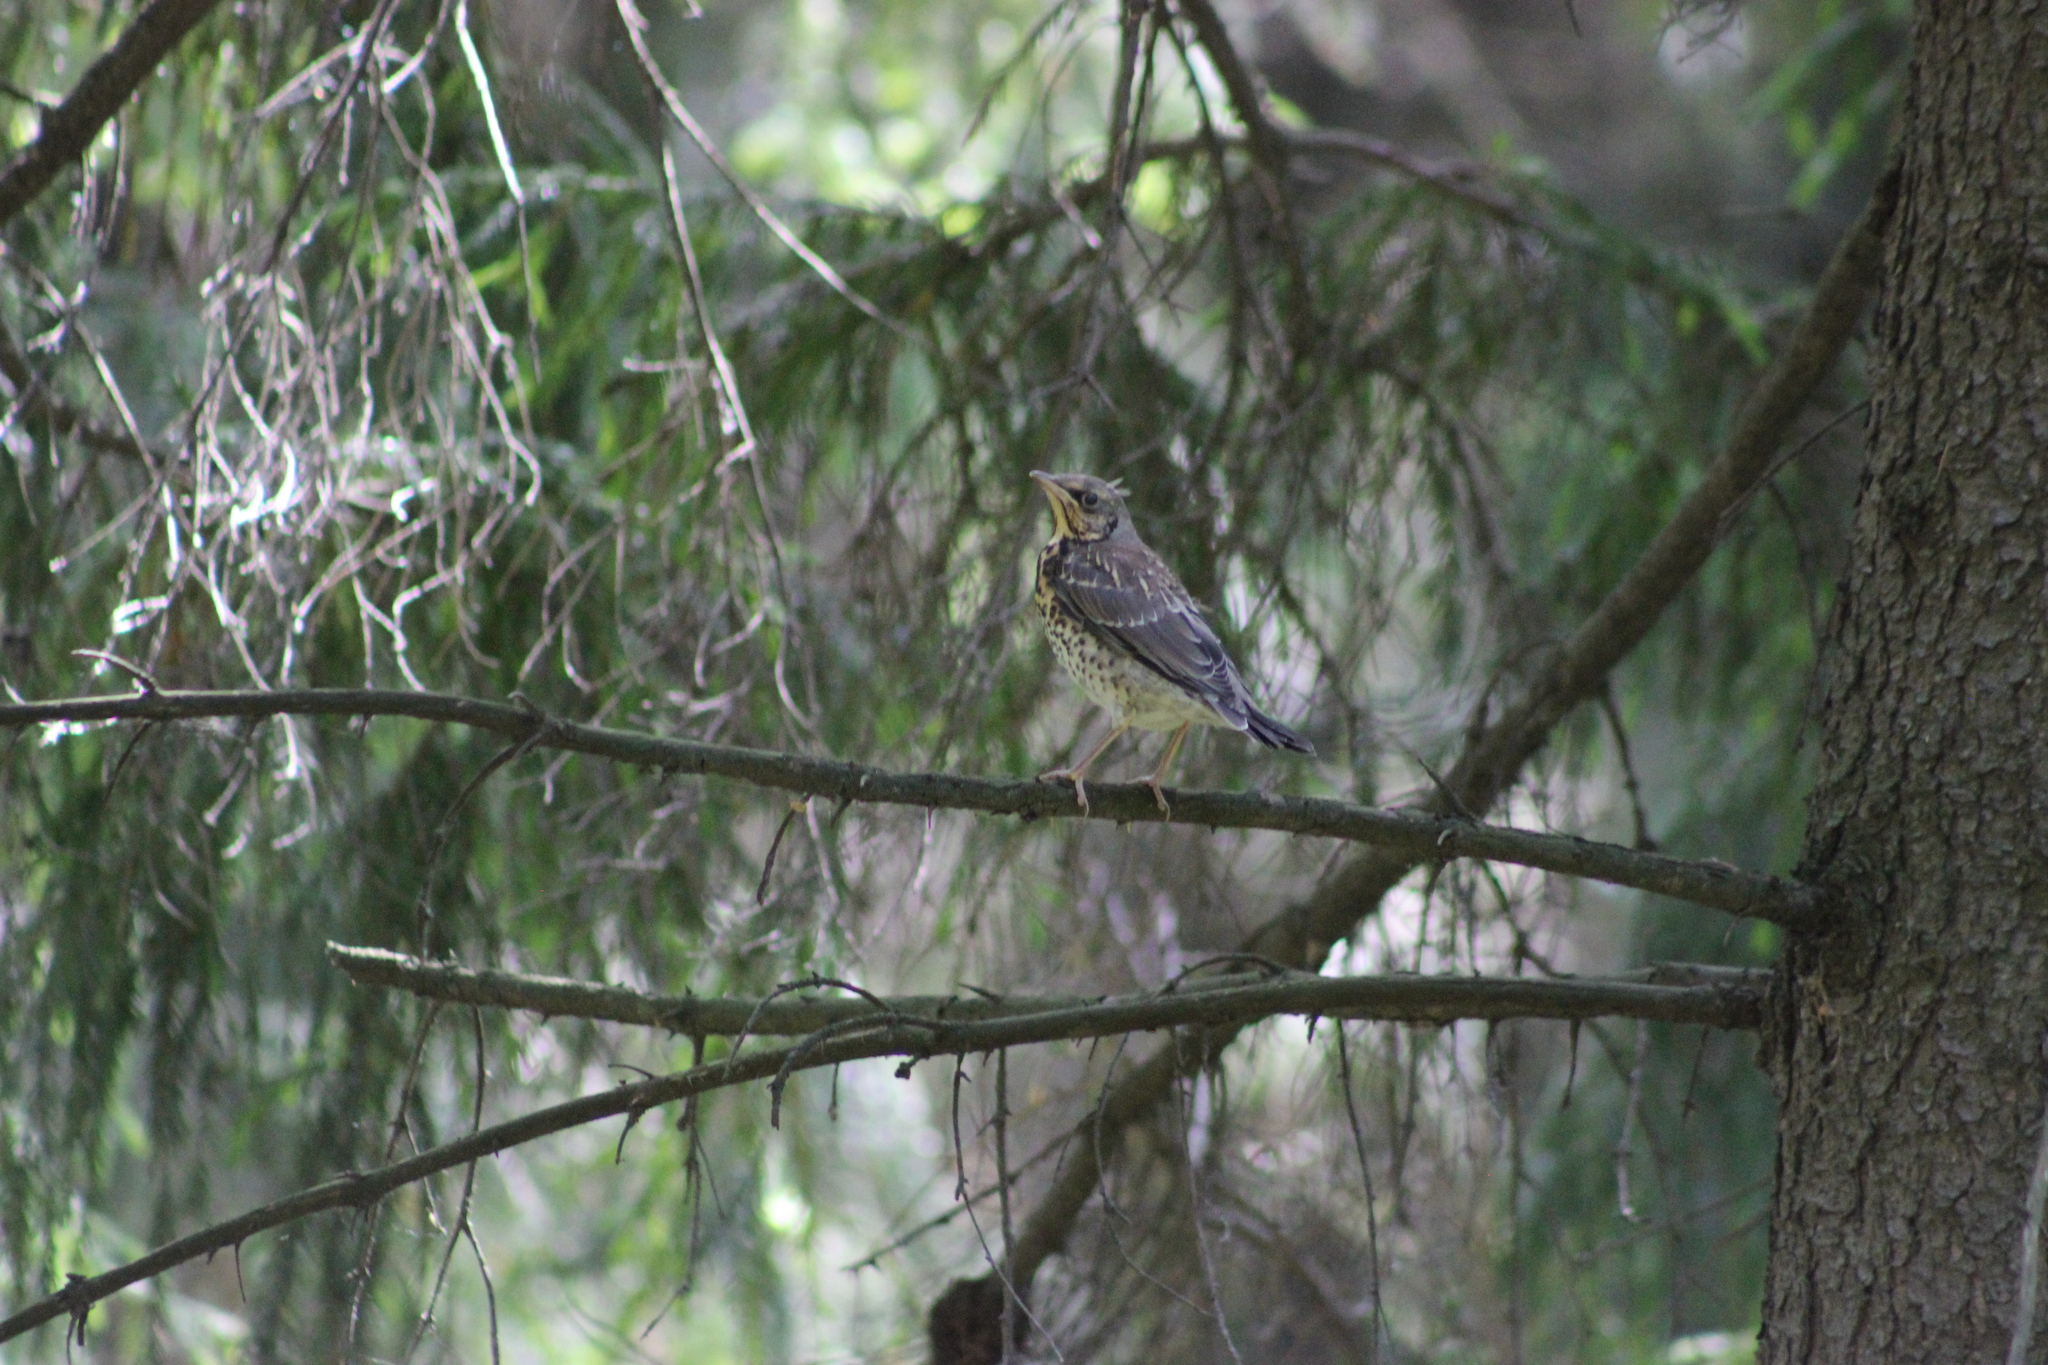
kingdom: Animalia
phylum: Chordata
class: Aves
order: Passeriformes
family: Turdidae
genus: Turdus
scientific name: Turdus pilaris
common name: Fieldfare
